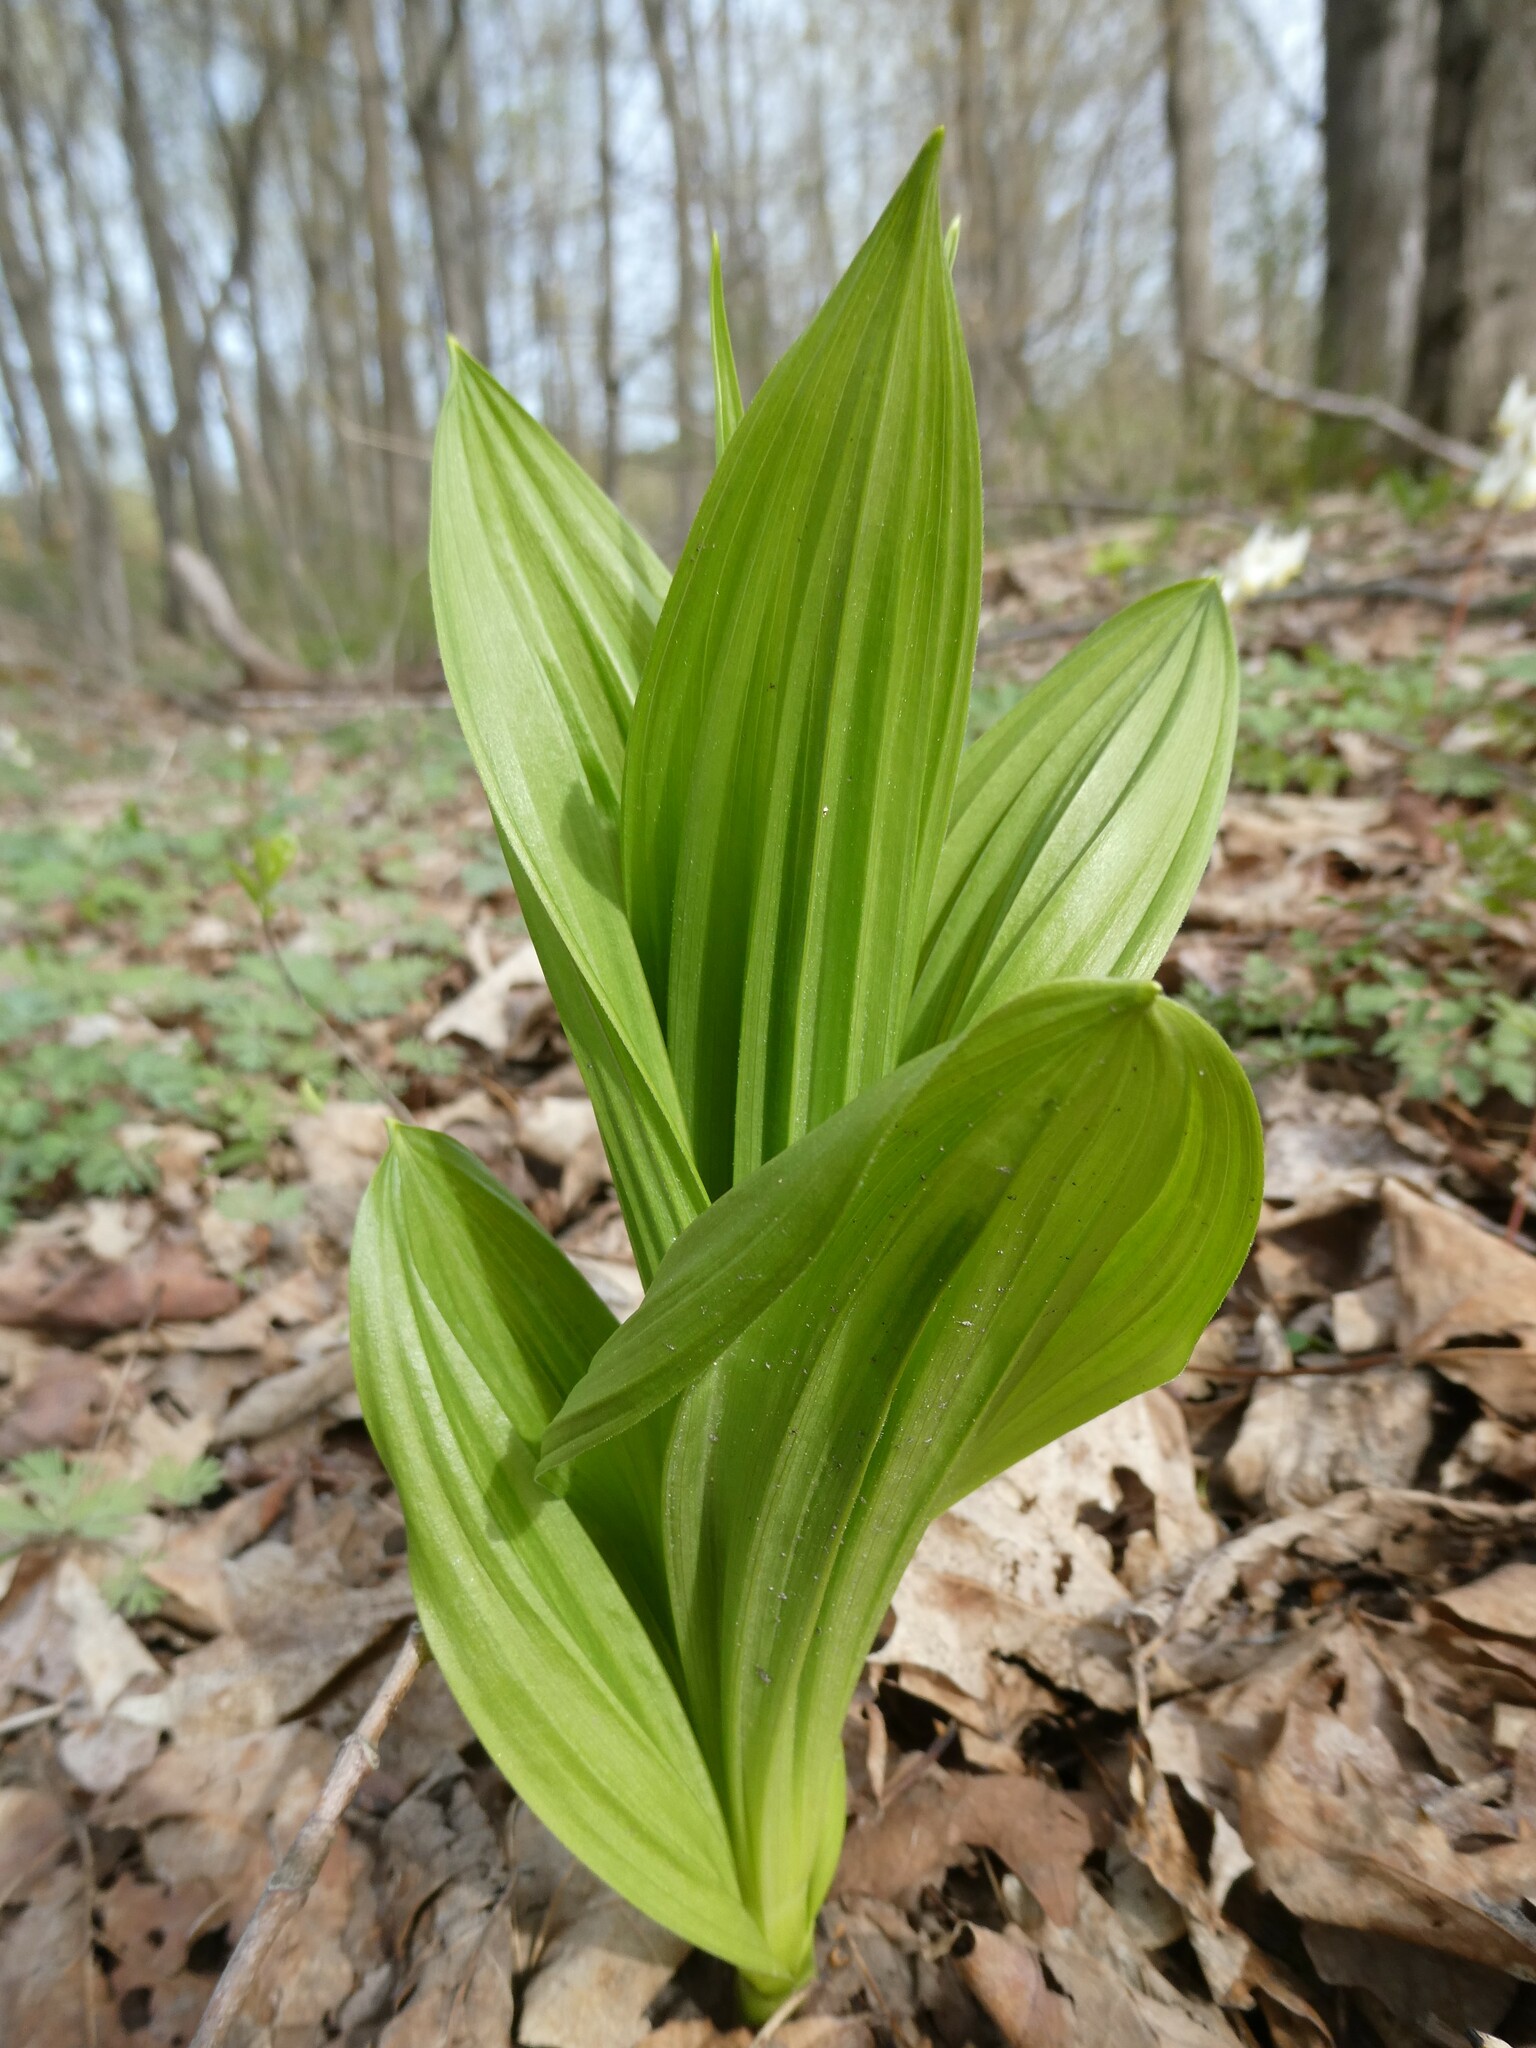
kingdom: Plantae
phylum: Tracheophyta
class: Liliopsida
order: Liliales
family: Melanthiaceae
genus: Veratrum
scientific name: Veratrum viride
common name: American false hellebore
